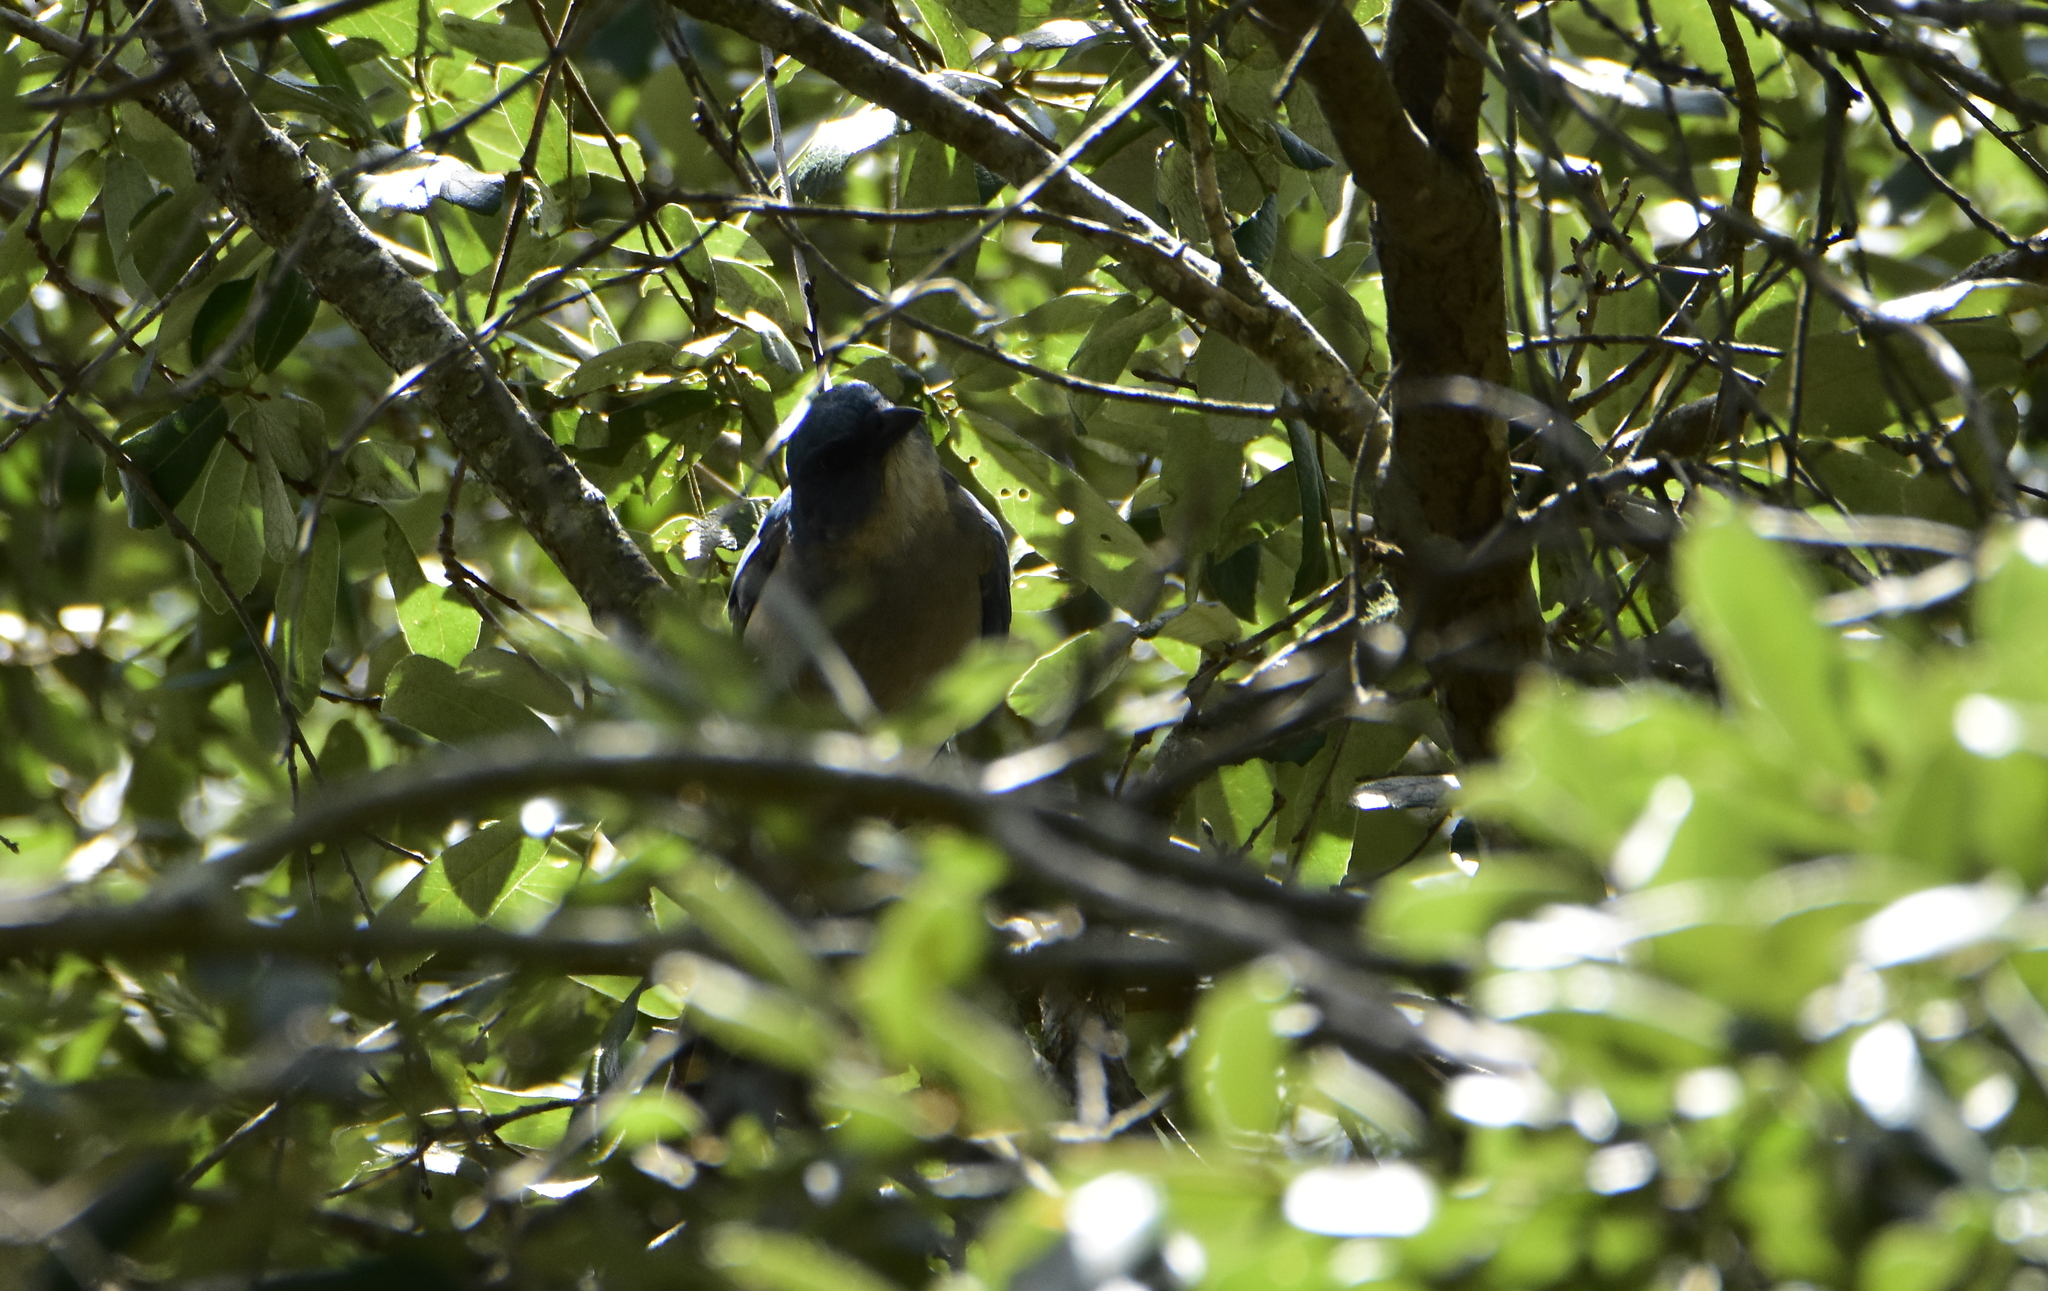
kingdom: Animalia
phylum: Chordata
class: Aves
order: Passeriformes
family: Corvidae
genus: Aphelocoma
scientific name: Aphelocoma wollweberi
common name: Mexican jay
